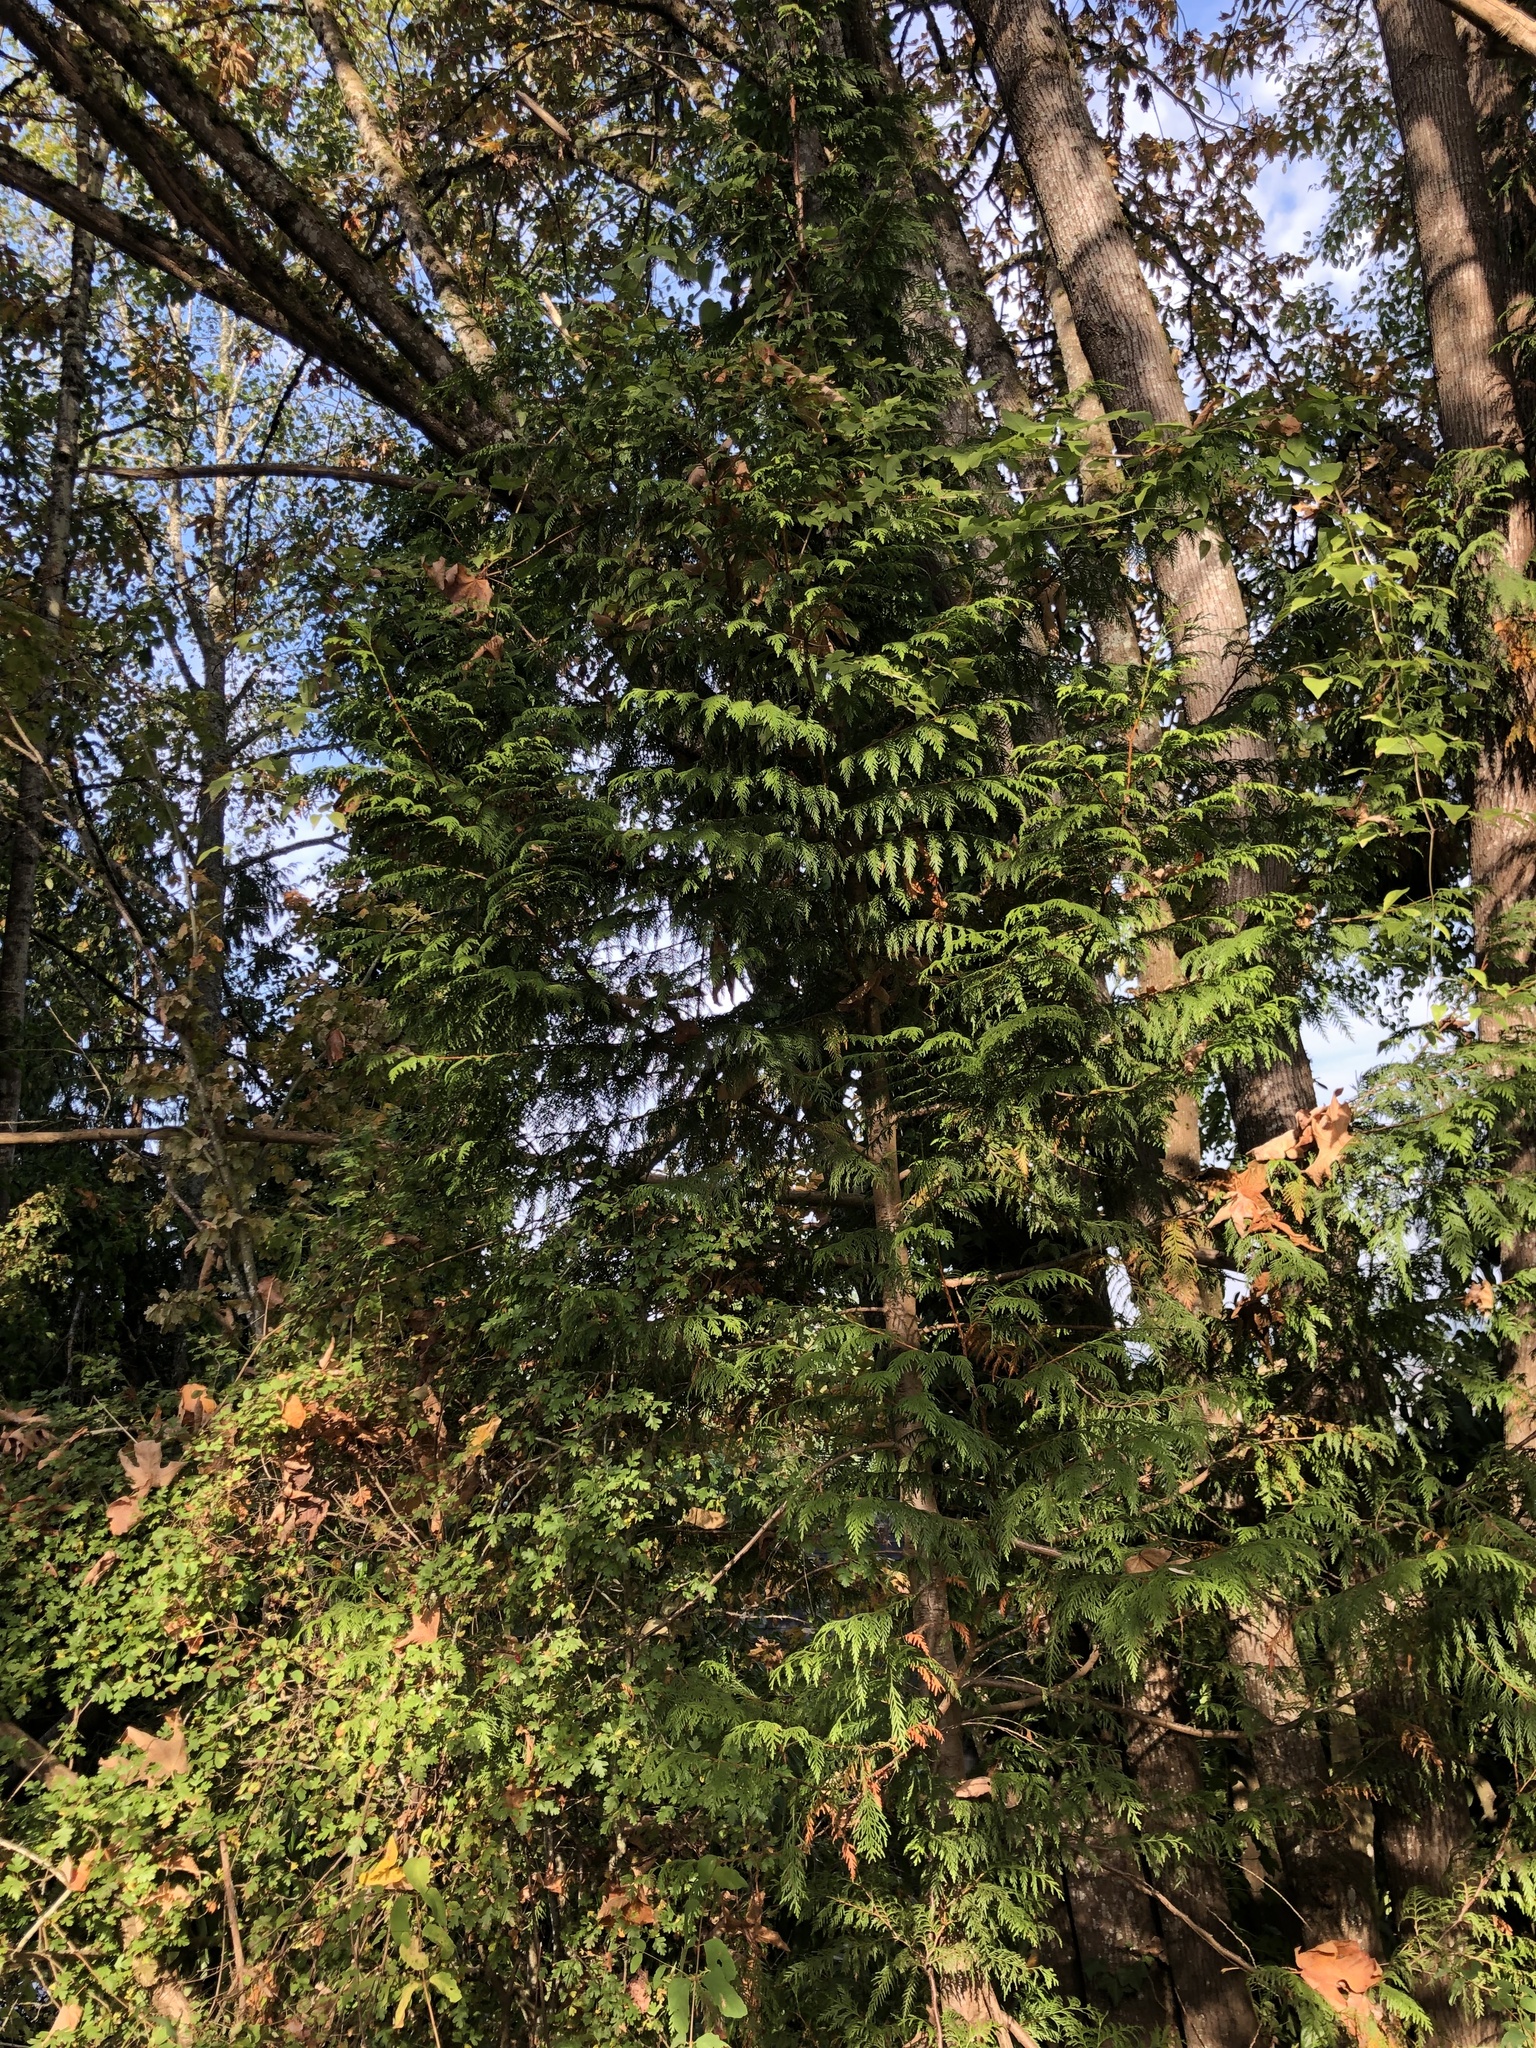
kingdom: Plantae
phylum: Tracheophyta
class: Pinopsida
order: Pinales
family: Cupressaceae
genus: Thuja
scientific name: Thuja plicata
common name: Western red-cedar
